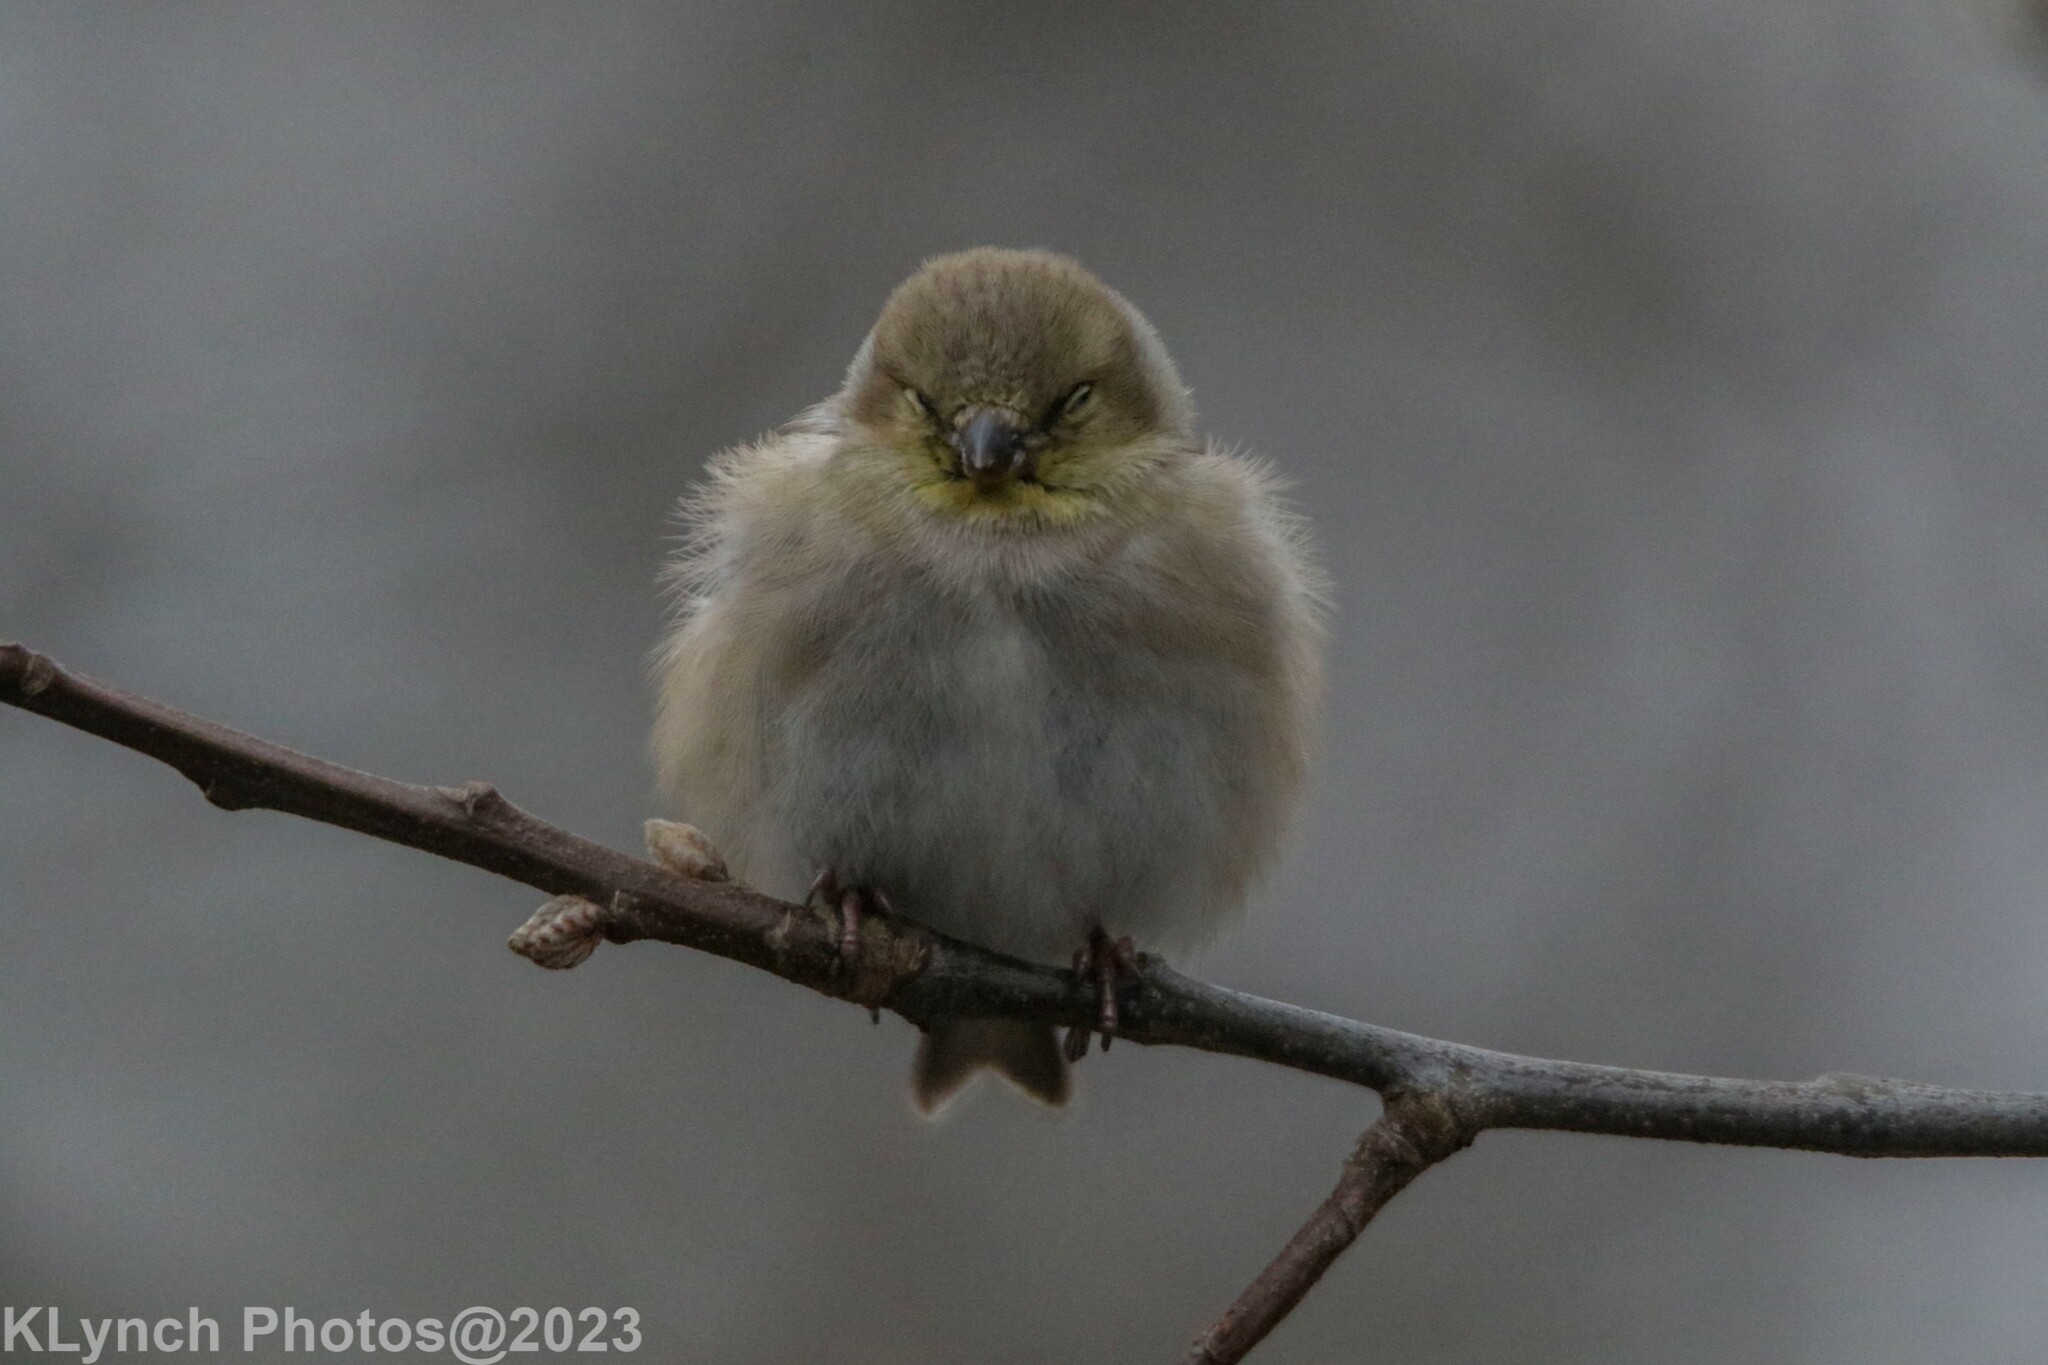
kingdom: Animalia
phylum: Chordata
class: Aves
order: Passeriformes
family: Fringillidae
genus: Spinus
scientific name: Spinus tristis
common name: American goldfinch
